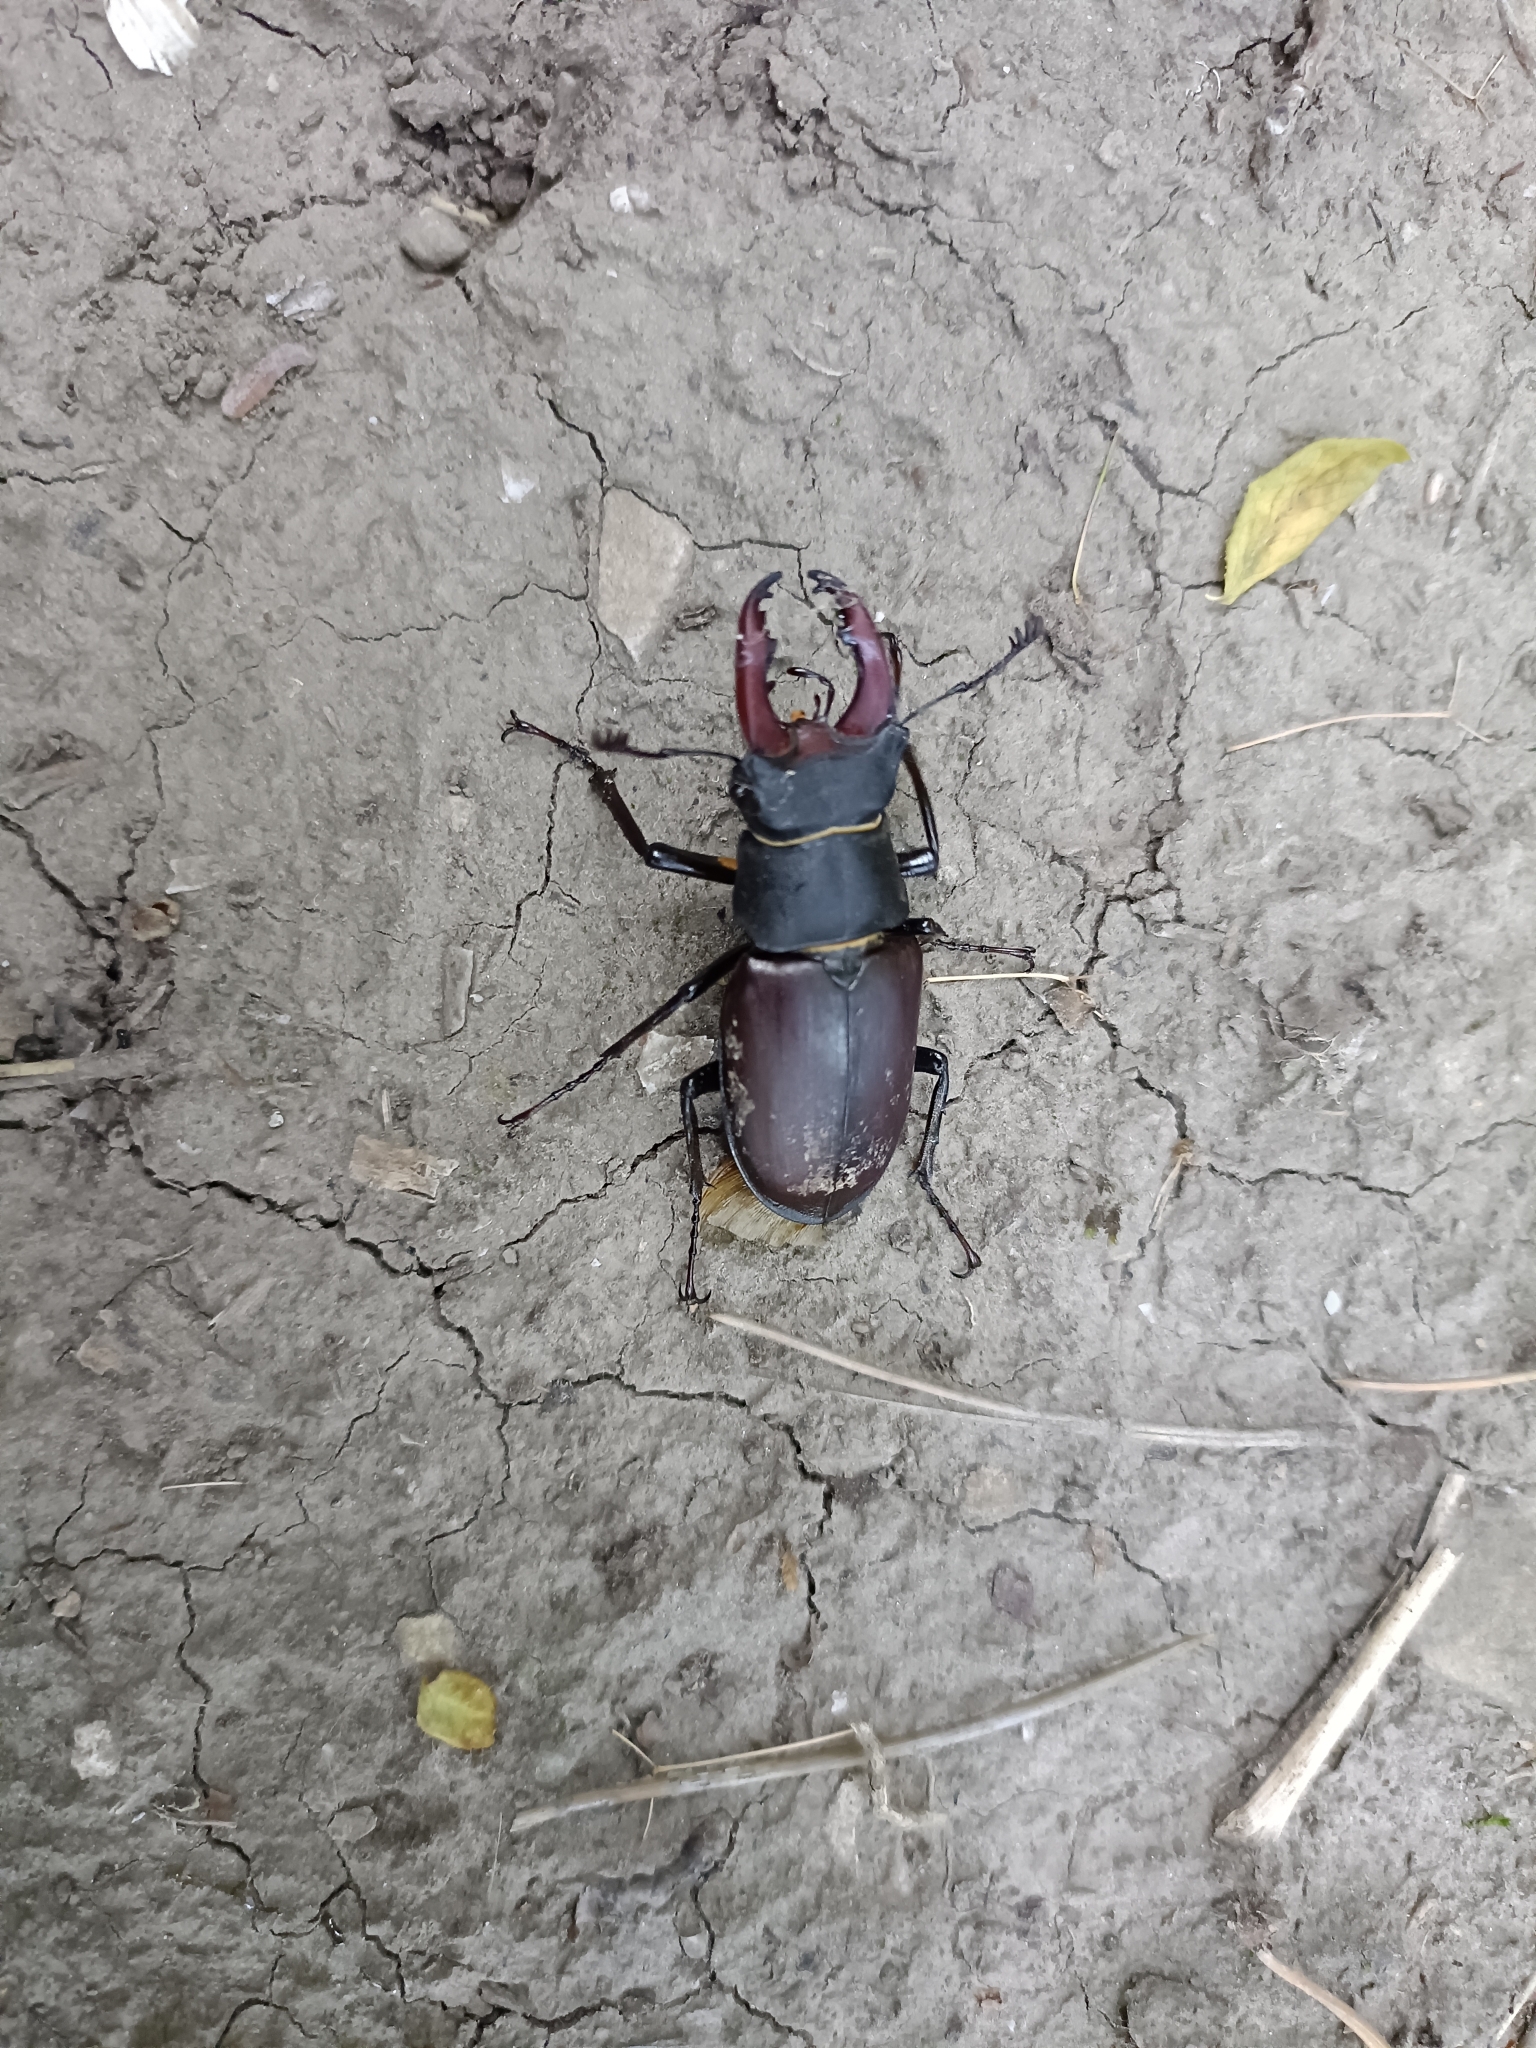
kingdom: Animalia
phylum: Arthropoda
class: Insecta
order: Coleoptera
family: Lucanidae
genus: Lucanus
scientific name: Lucanus cervus
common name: Stag beetle
